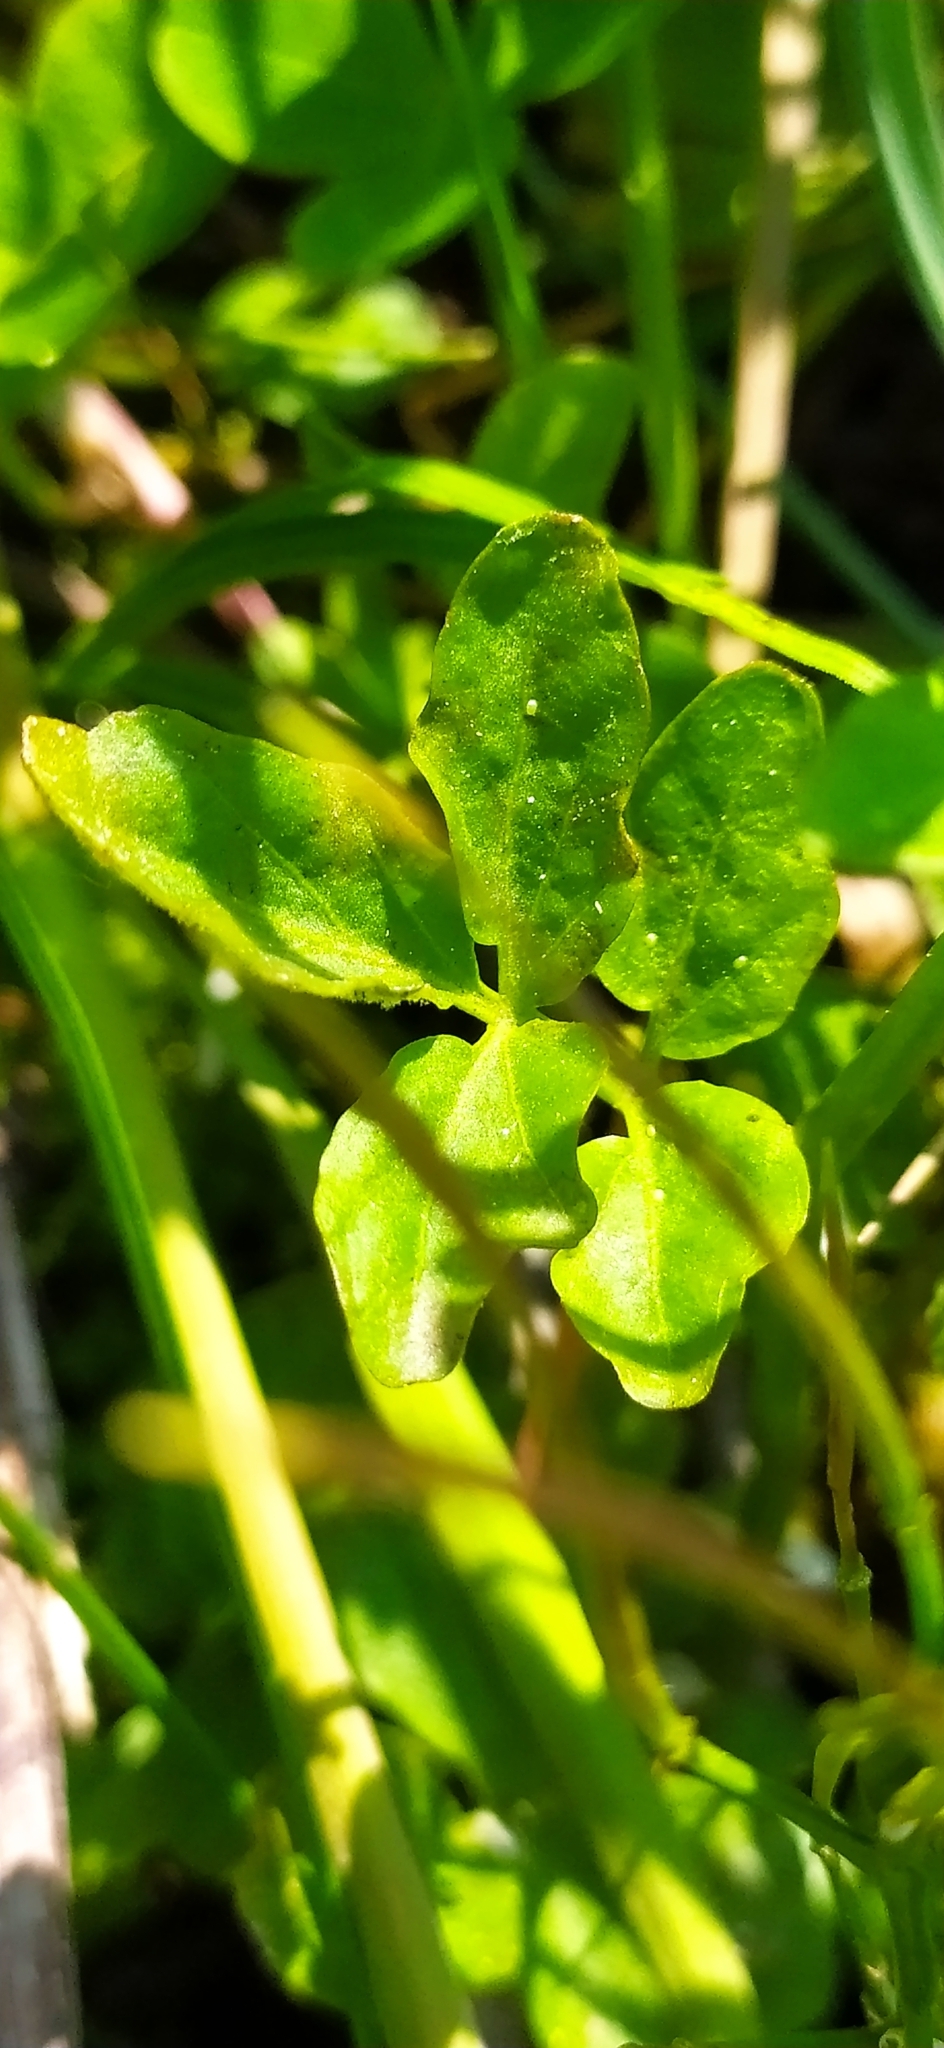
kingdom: Plantae
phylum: Tracheophyta
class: Magnoliopsida
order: Brassicales
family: Brassicaceae
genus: Cardamine
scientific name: Cardamine amara
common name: Large bitter-cress
